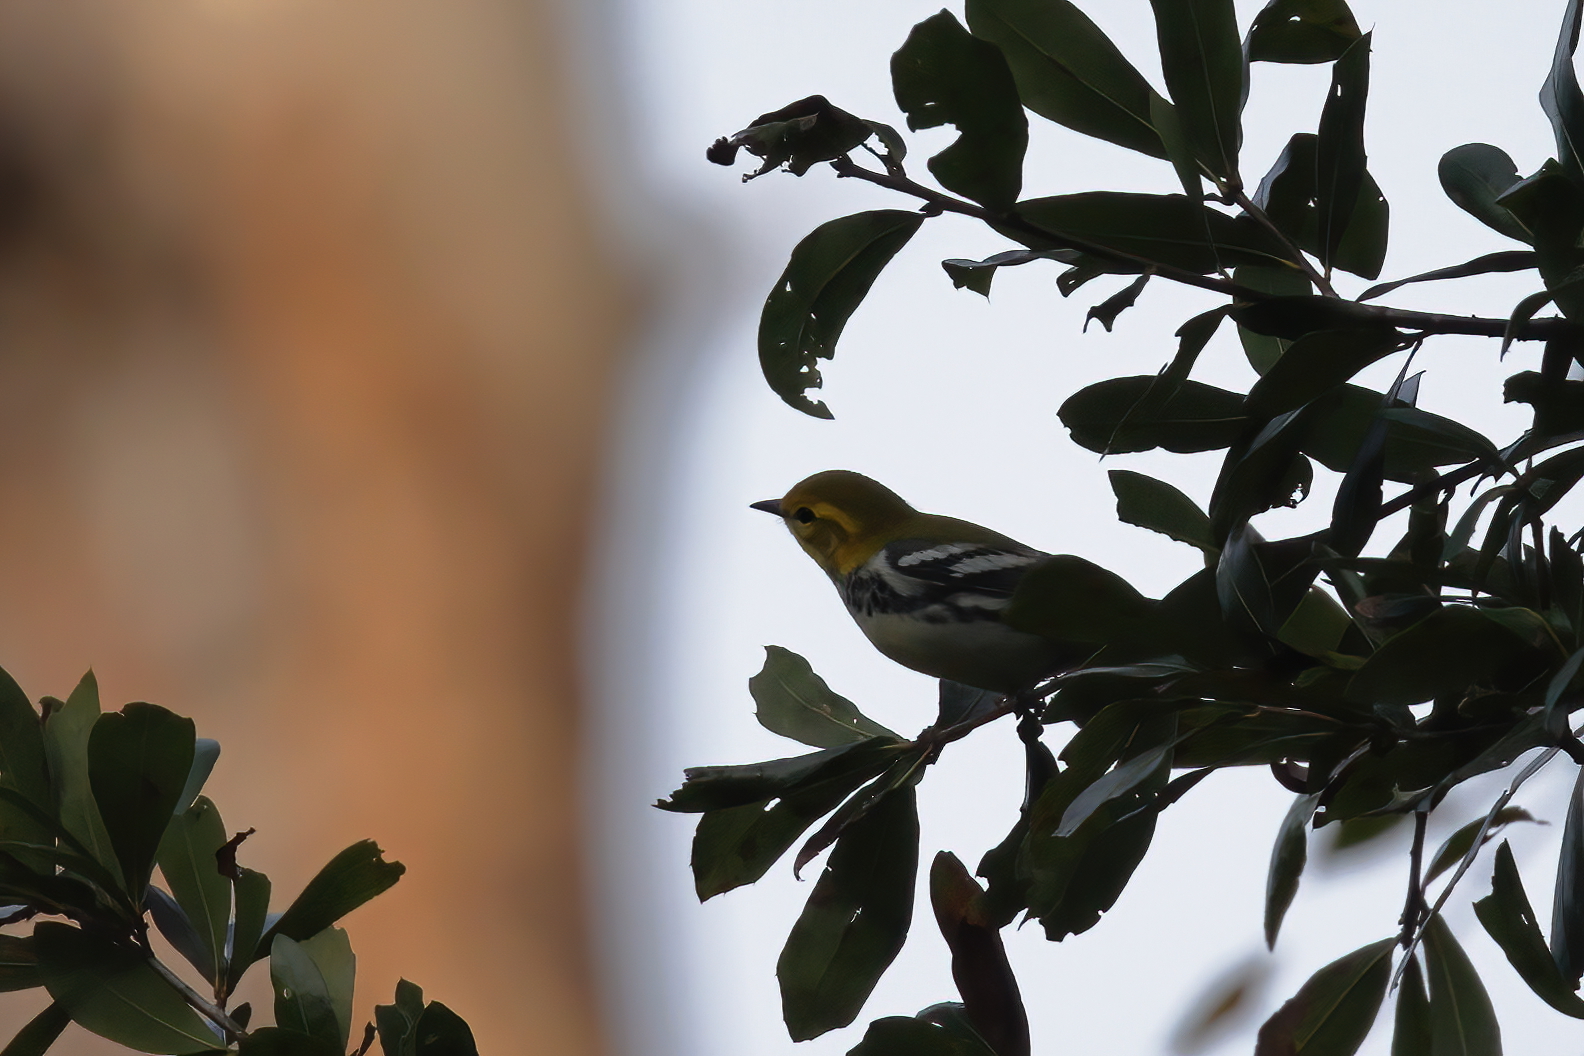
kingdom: Animalia
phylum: Chordata
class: Aves
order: Passeriformes
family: Parulidae
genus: Setophaga
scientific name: Setophaga virens
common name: Black-throated green warbler
